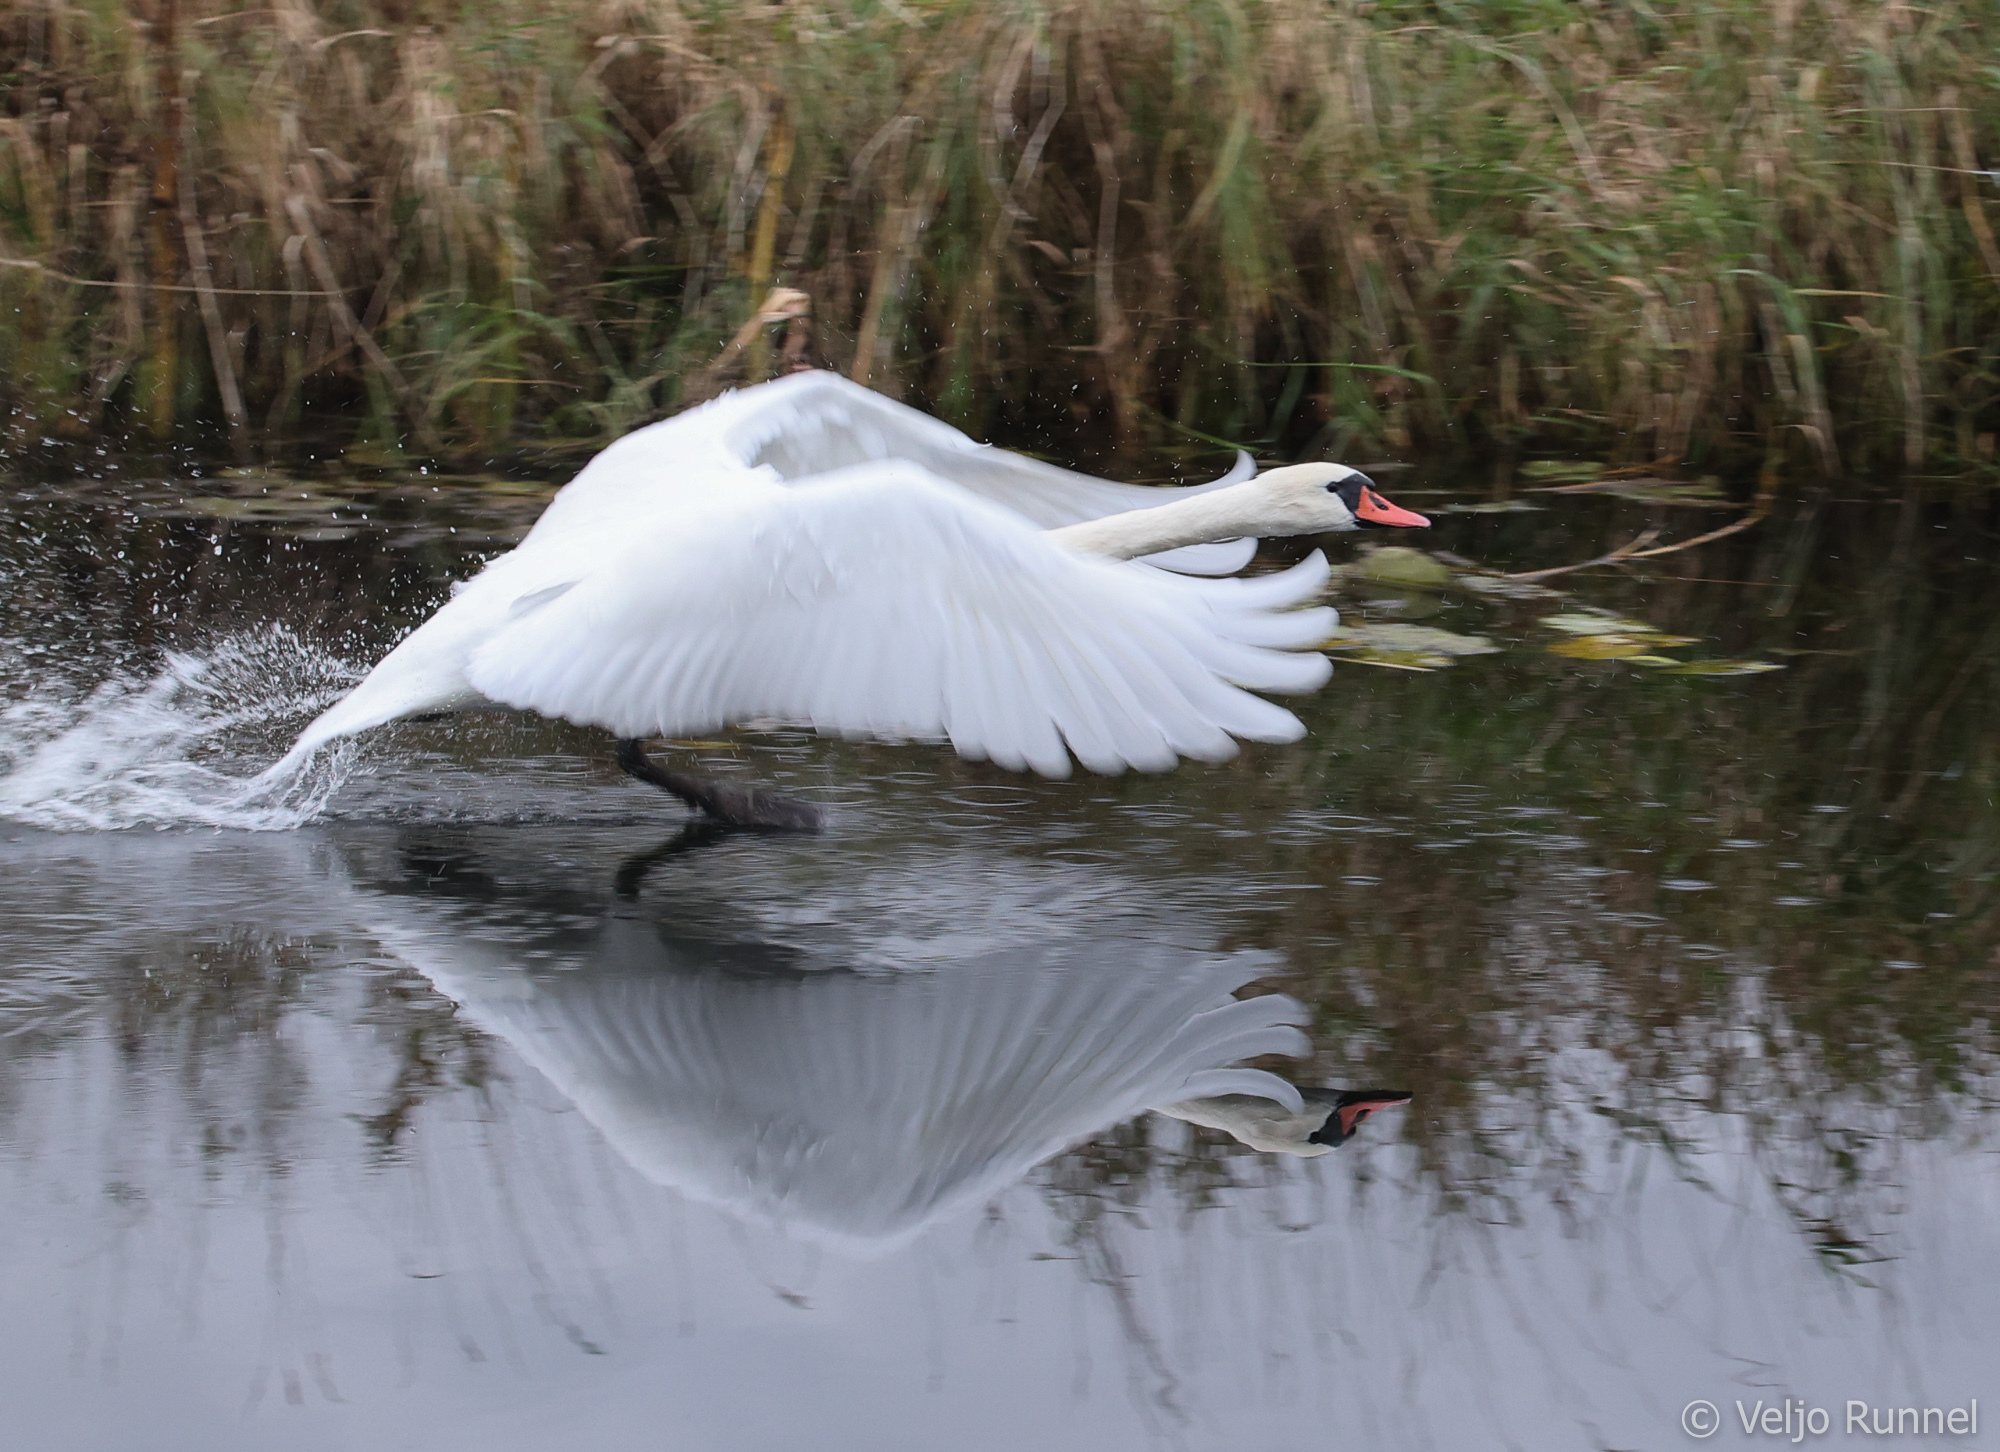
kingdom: Animalia
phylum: Chordata
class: Aves
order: Anseriformes
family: Anatidae
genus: Cygnus
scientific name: Cygnus olor
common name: Mute swan
